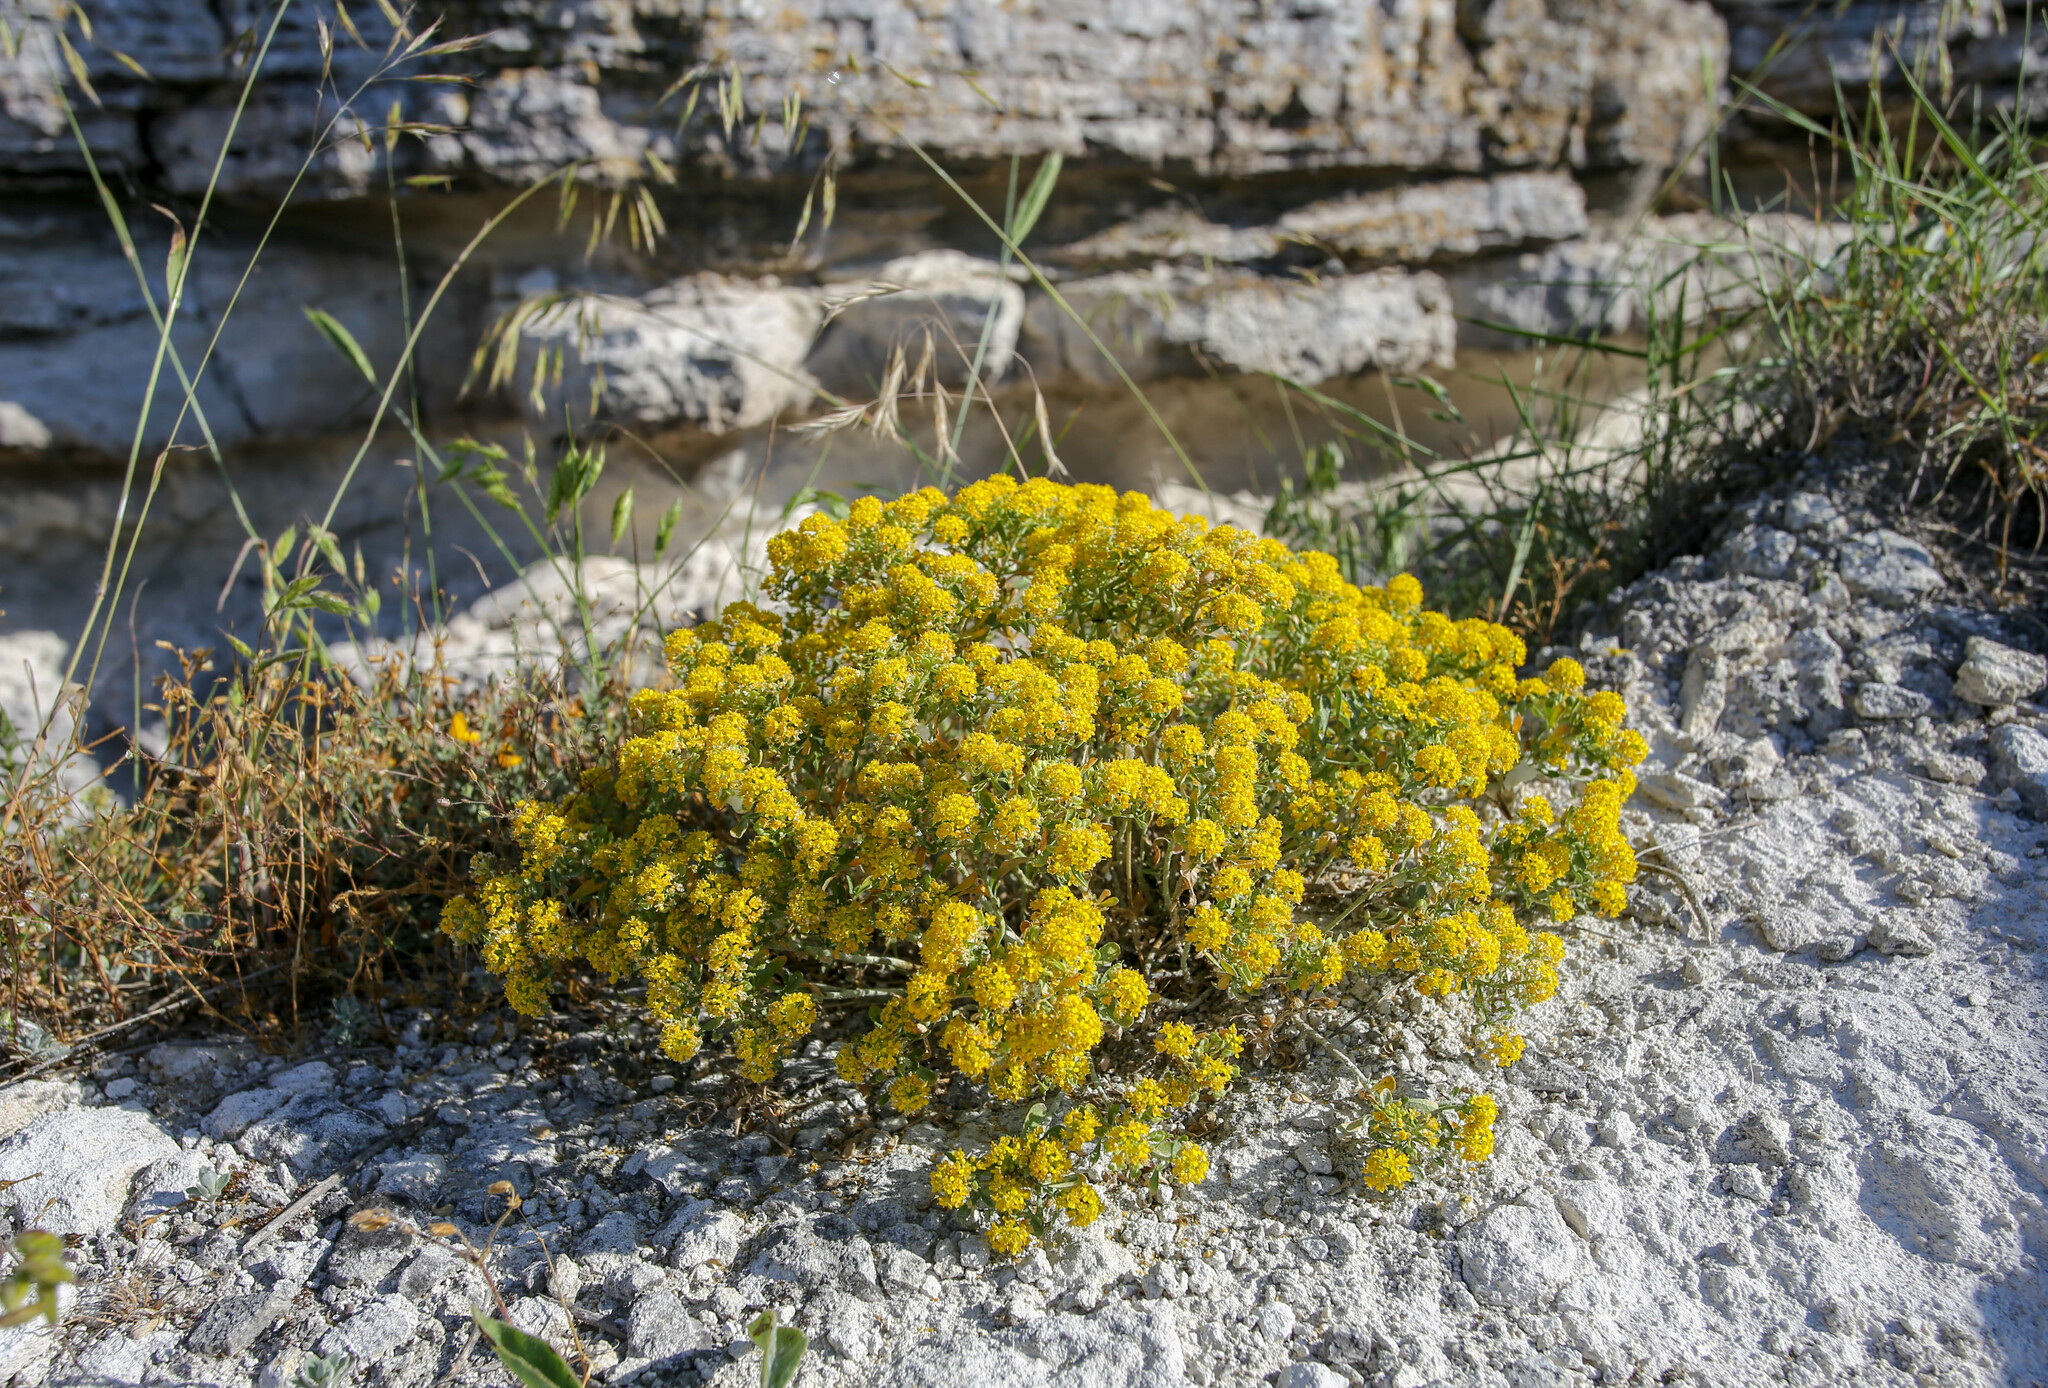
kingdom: Plantae
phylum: Tracheophyta
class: Magnoliopsida
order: Brassicales
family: Brassicaceae
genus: Odontarrhena
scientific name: Odontarrhena obtusifolia
